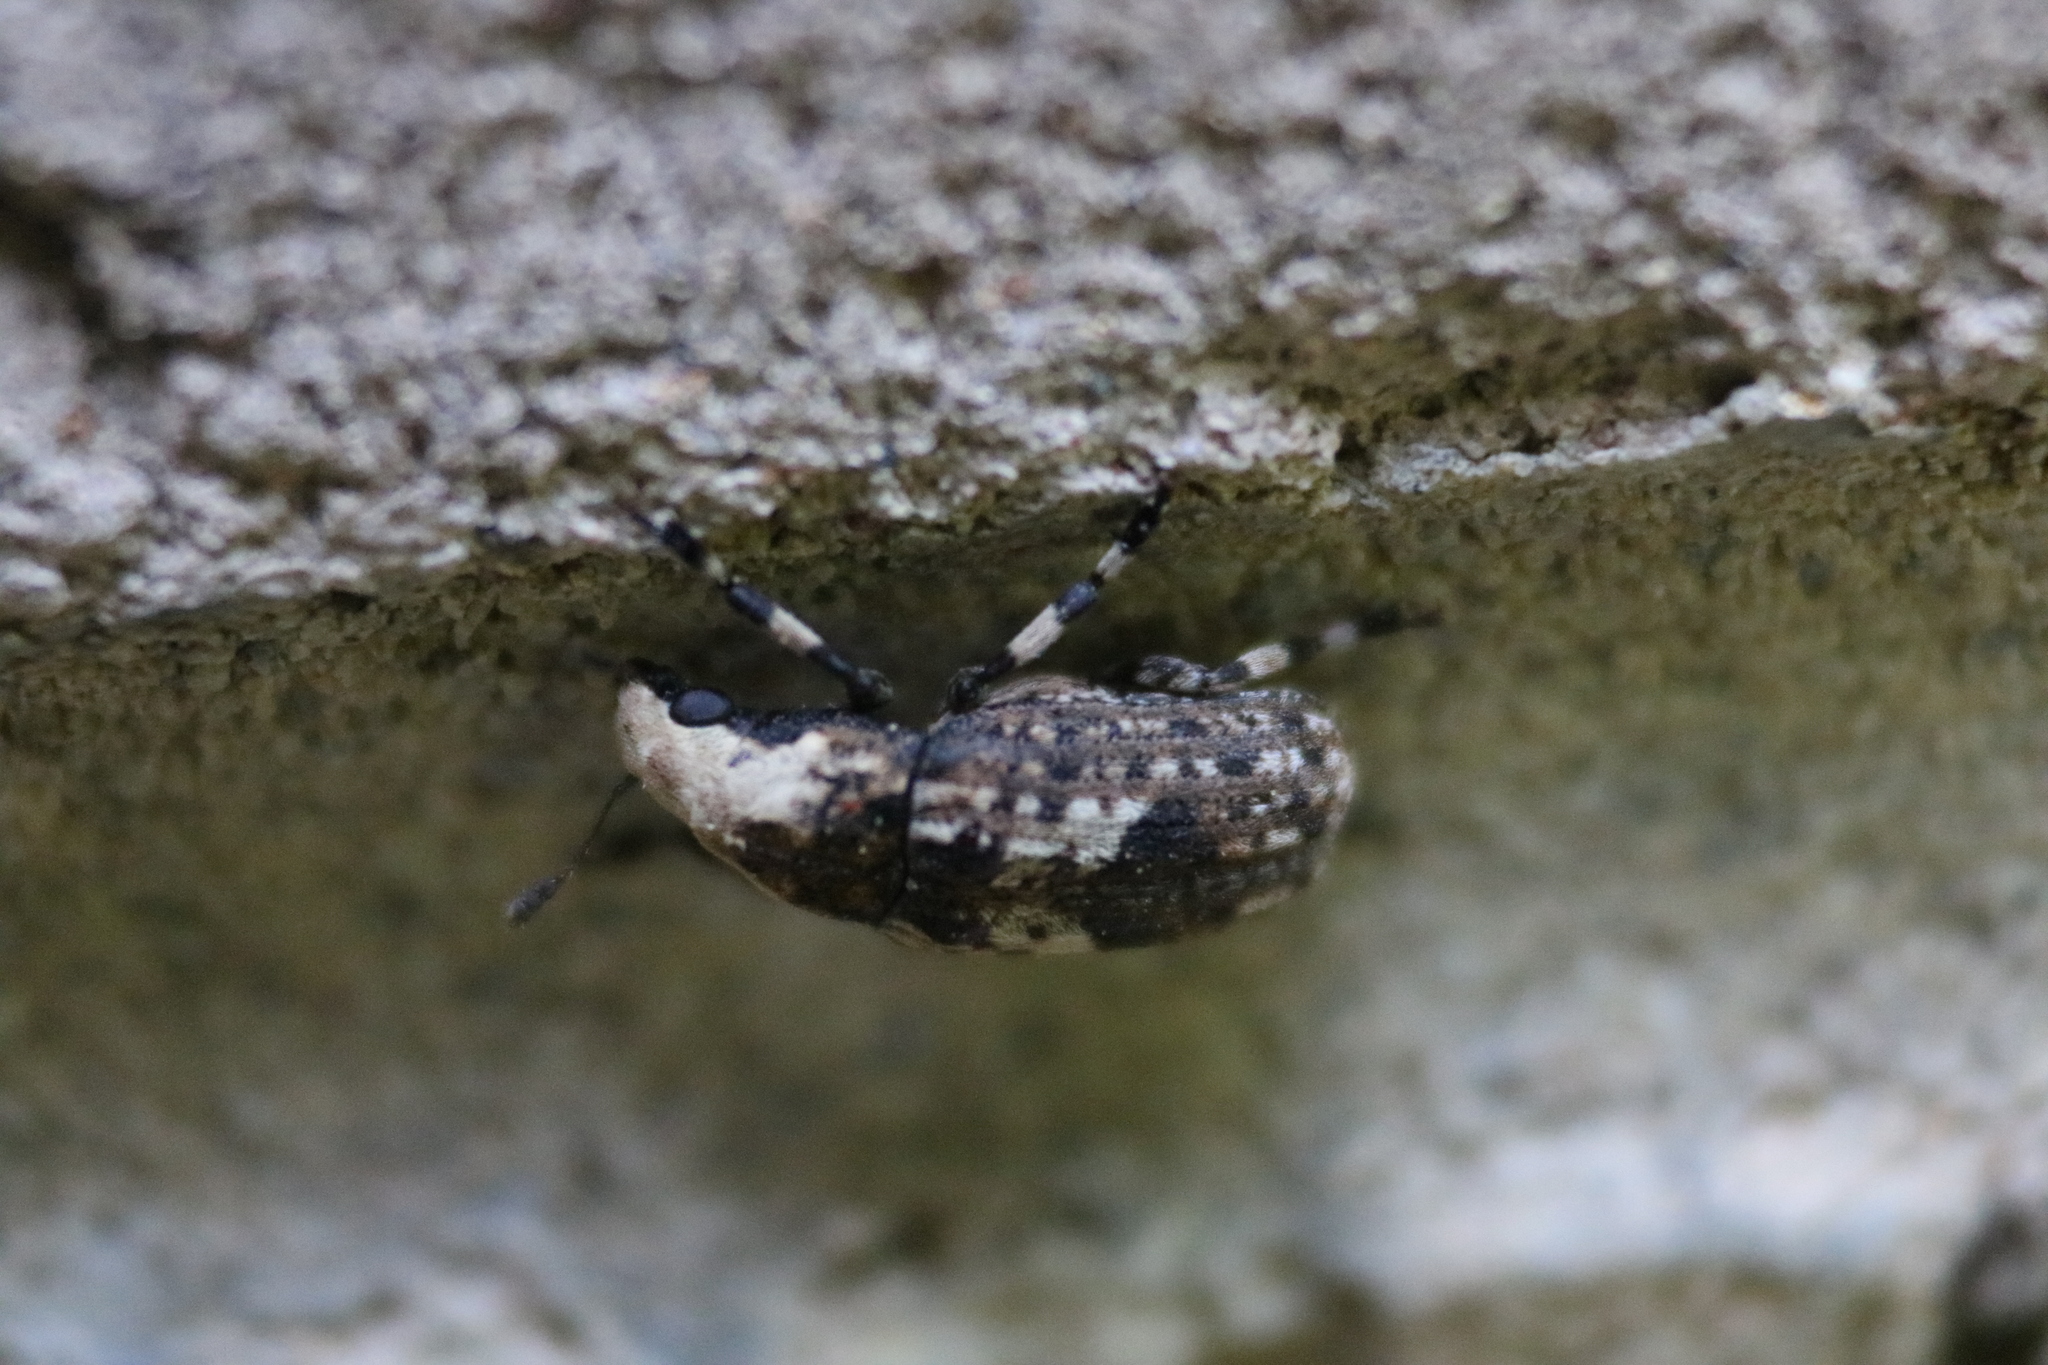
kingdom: Animalia
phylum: Arthropoda
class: Insecta
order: Coleoptera
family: Anthribidae
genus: Euparius
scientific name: Euparius marmoreus
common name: Marbled fungus weevil
